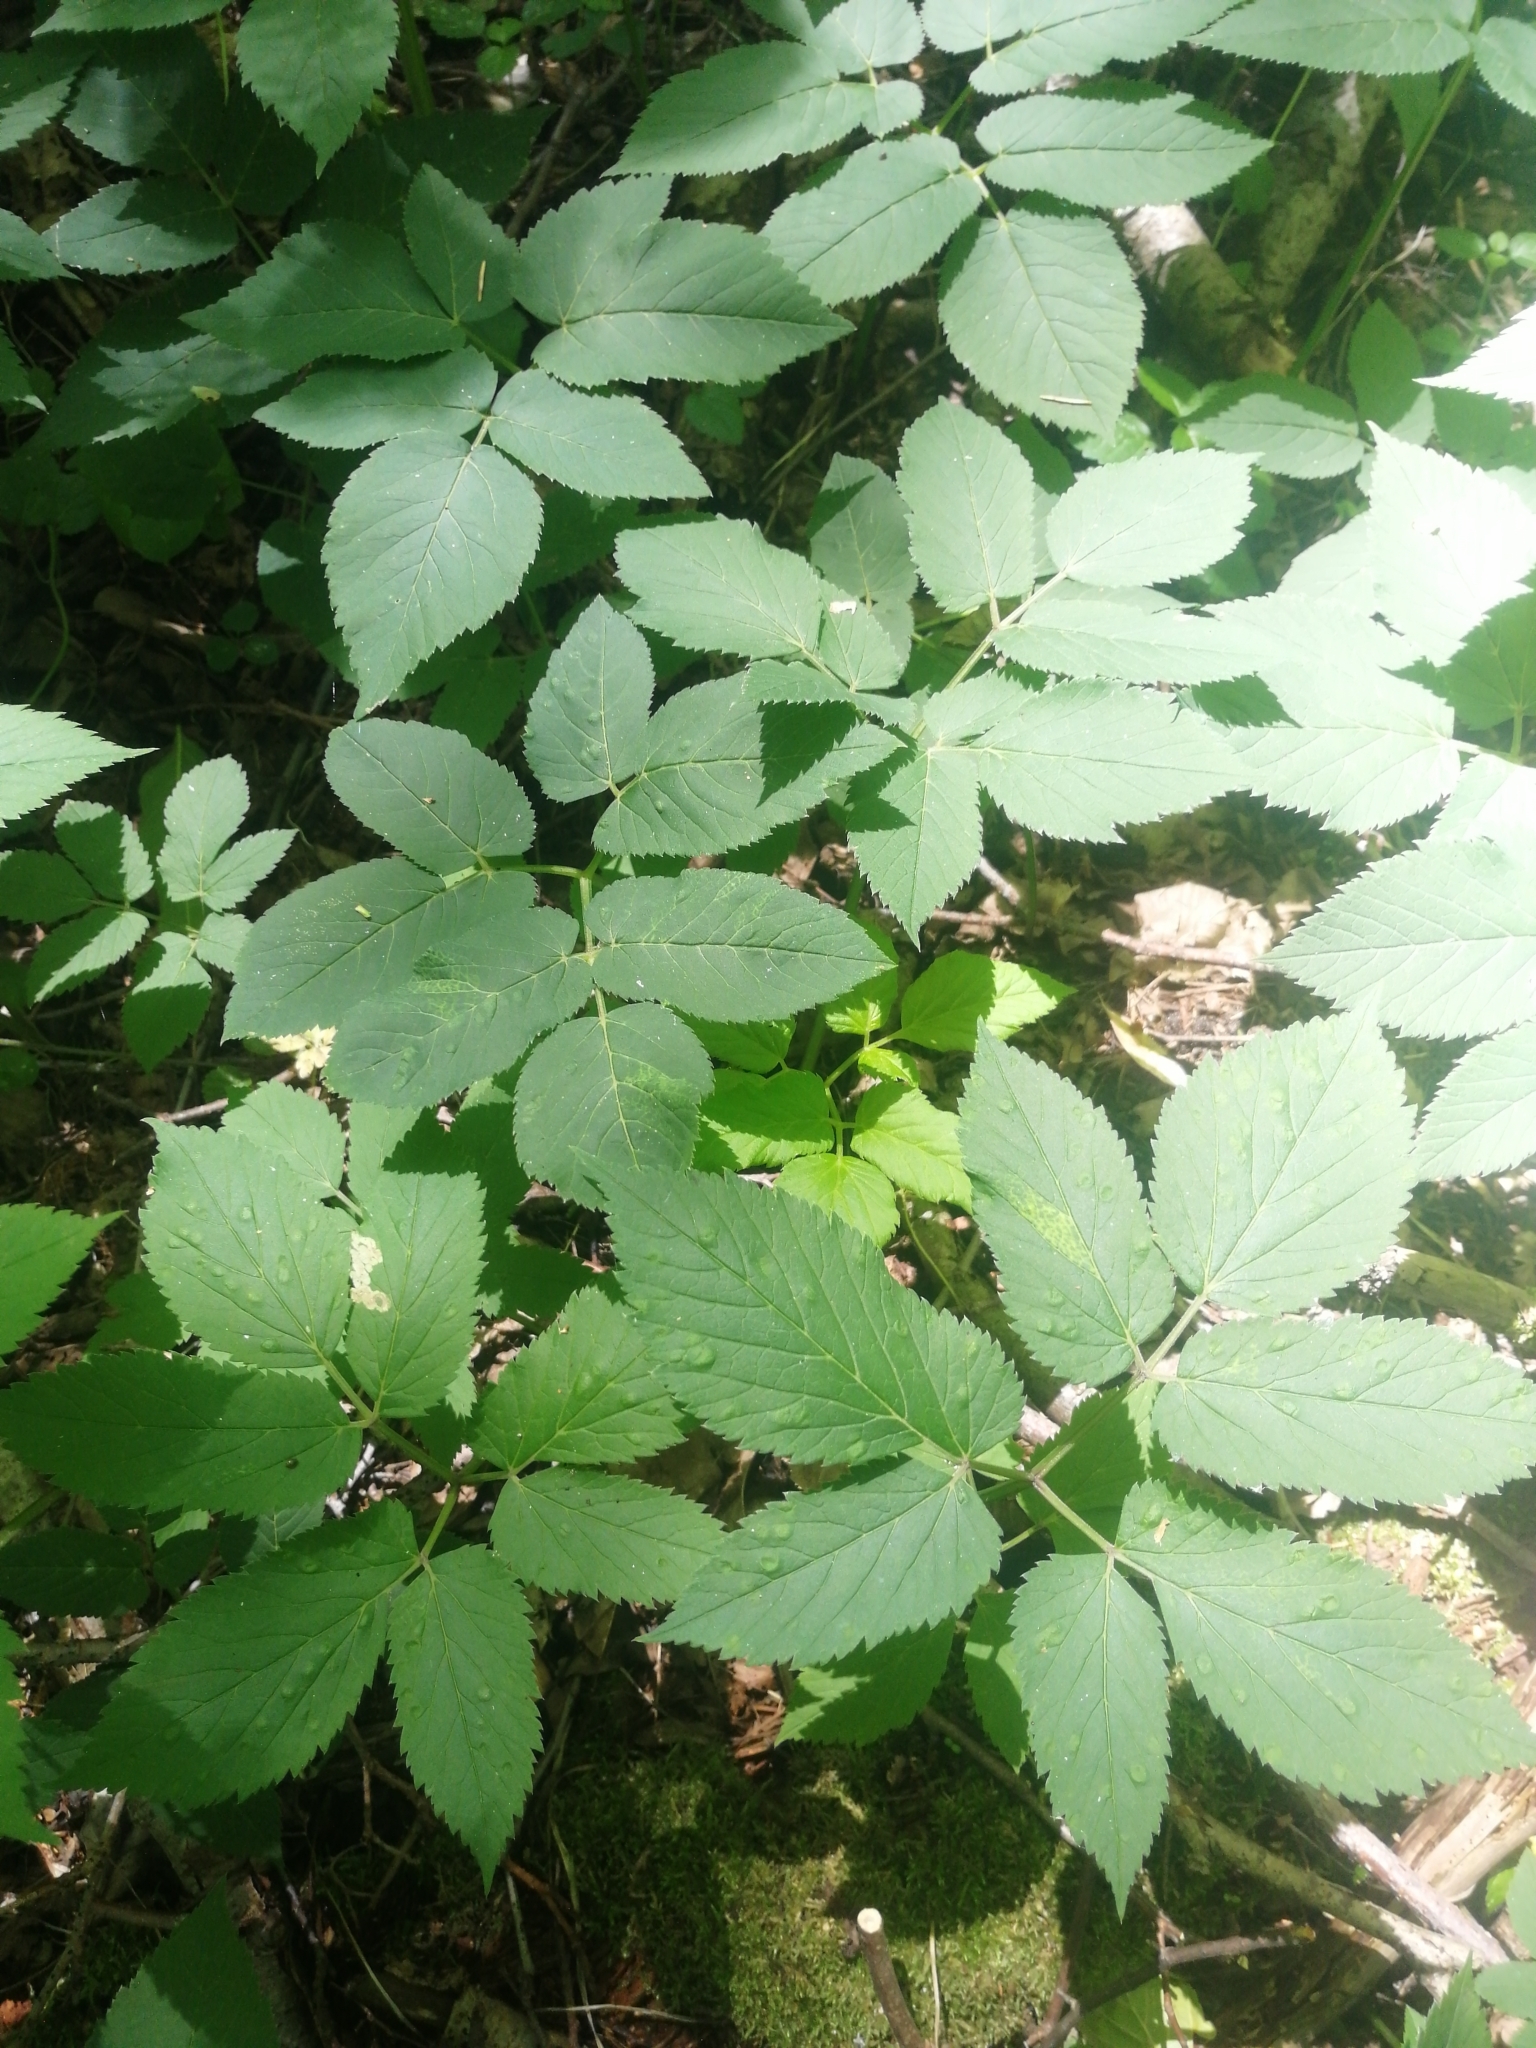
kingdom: Plantae
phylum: Tracheophyta
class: Magnoliopsida
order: Apiales
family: Apiaceae
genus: Aegopodium
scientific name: Aegopodium podagraria
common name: Ground-elder
